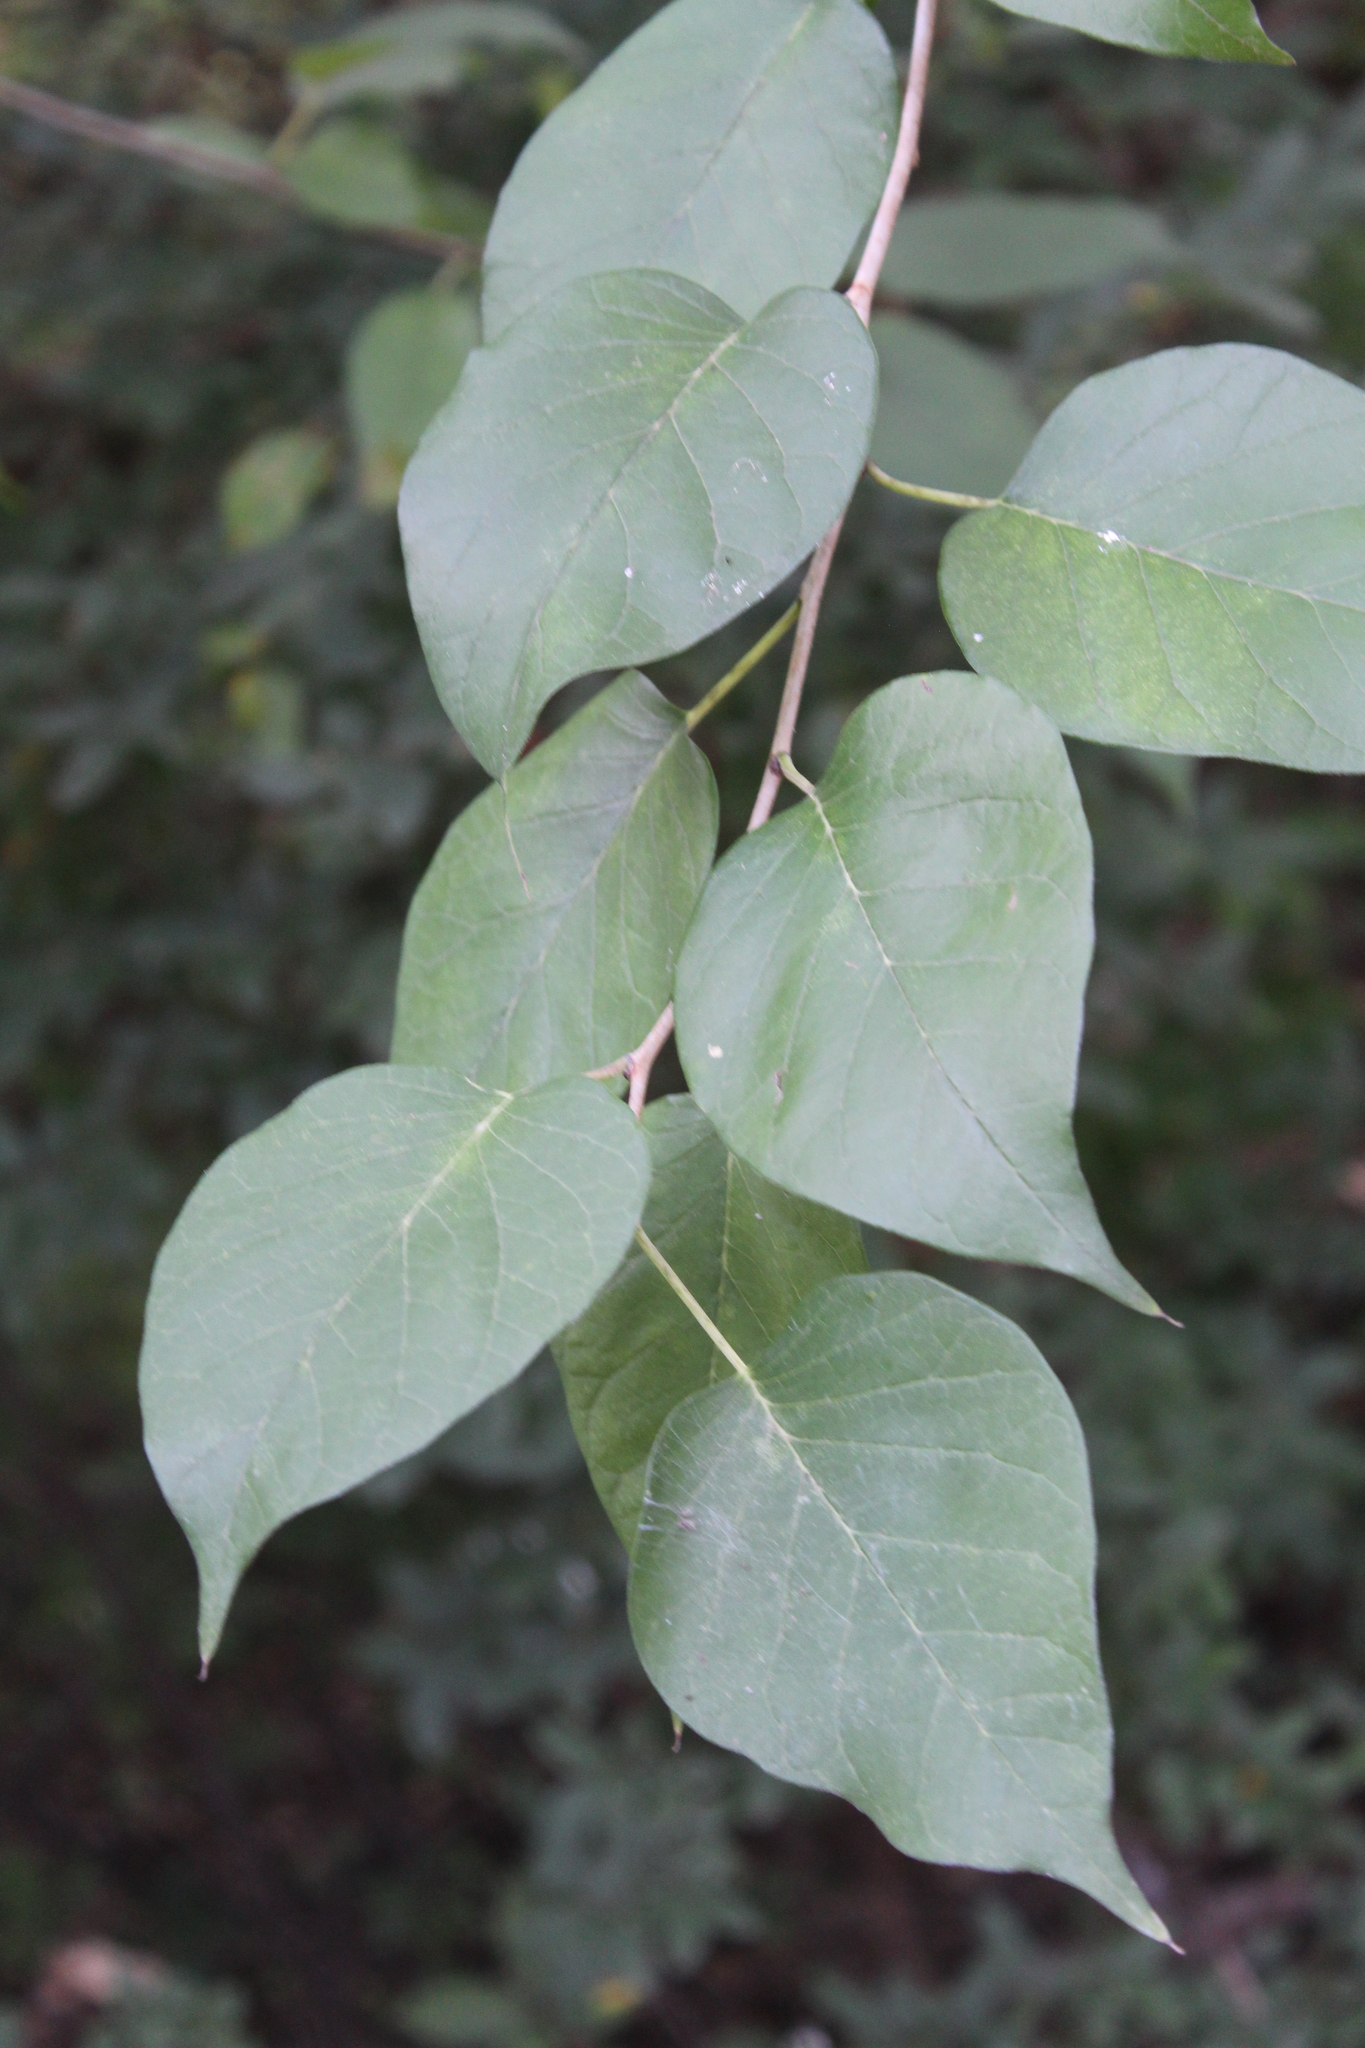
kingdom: Plantae
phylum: Tracheophyta
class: Magnoliopsida
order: Rosales
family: Moraceae
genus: Maclura
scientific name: Maclura pomifera
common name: Osage-orange
